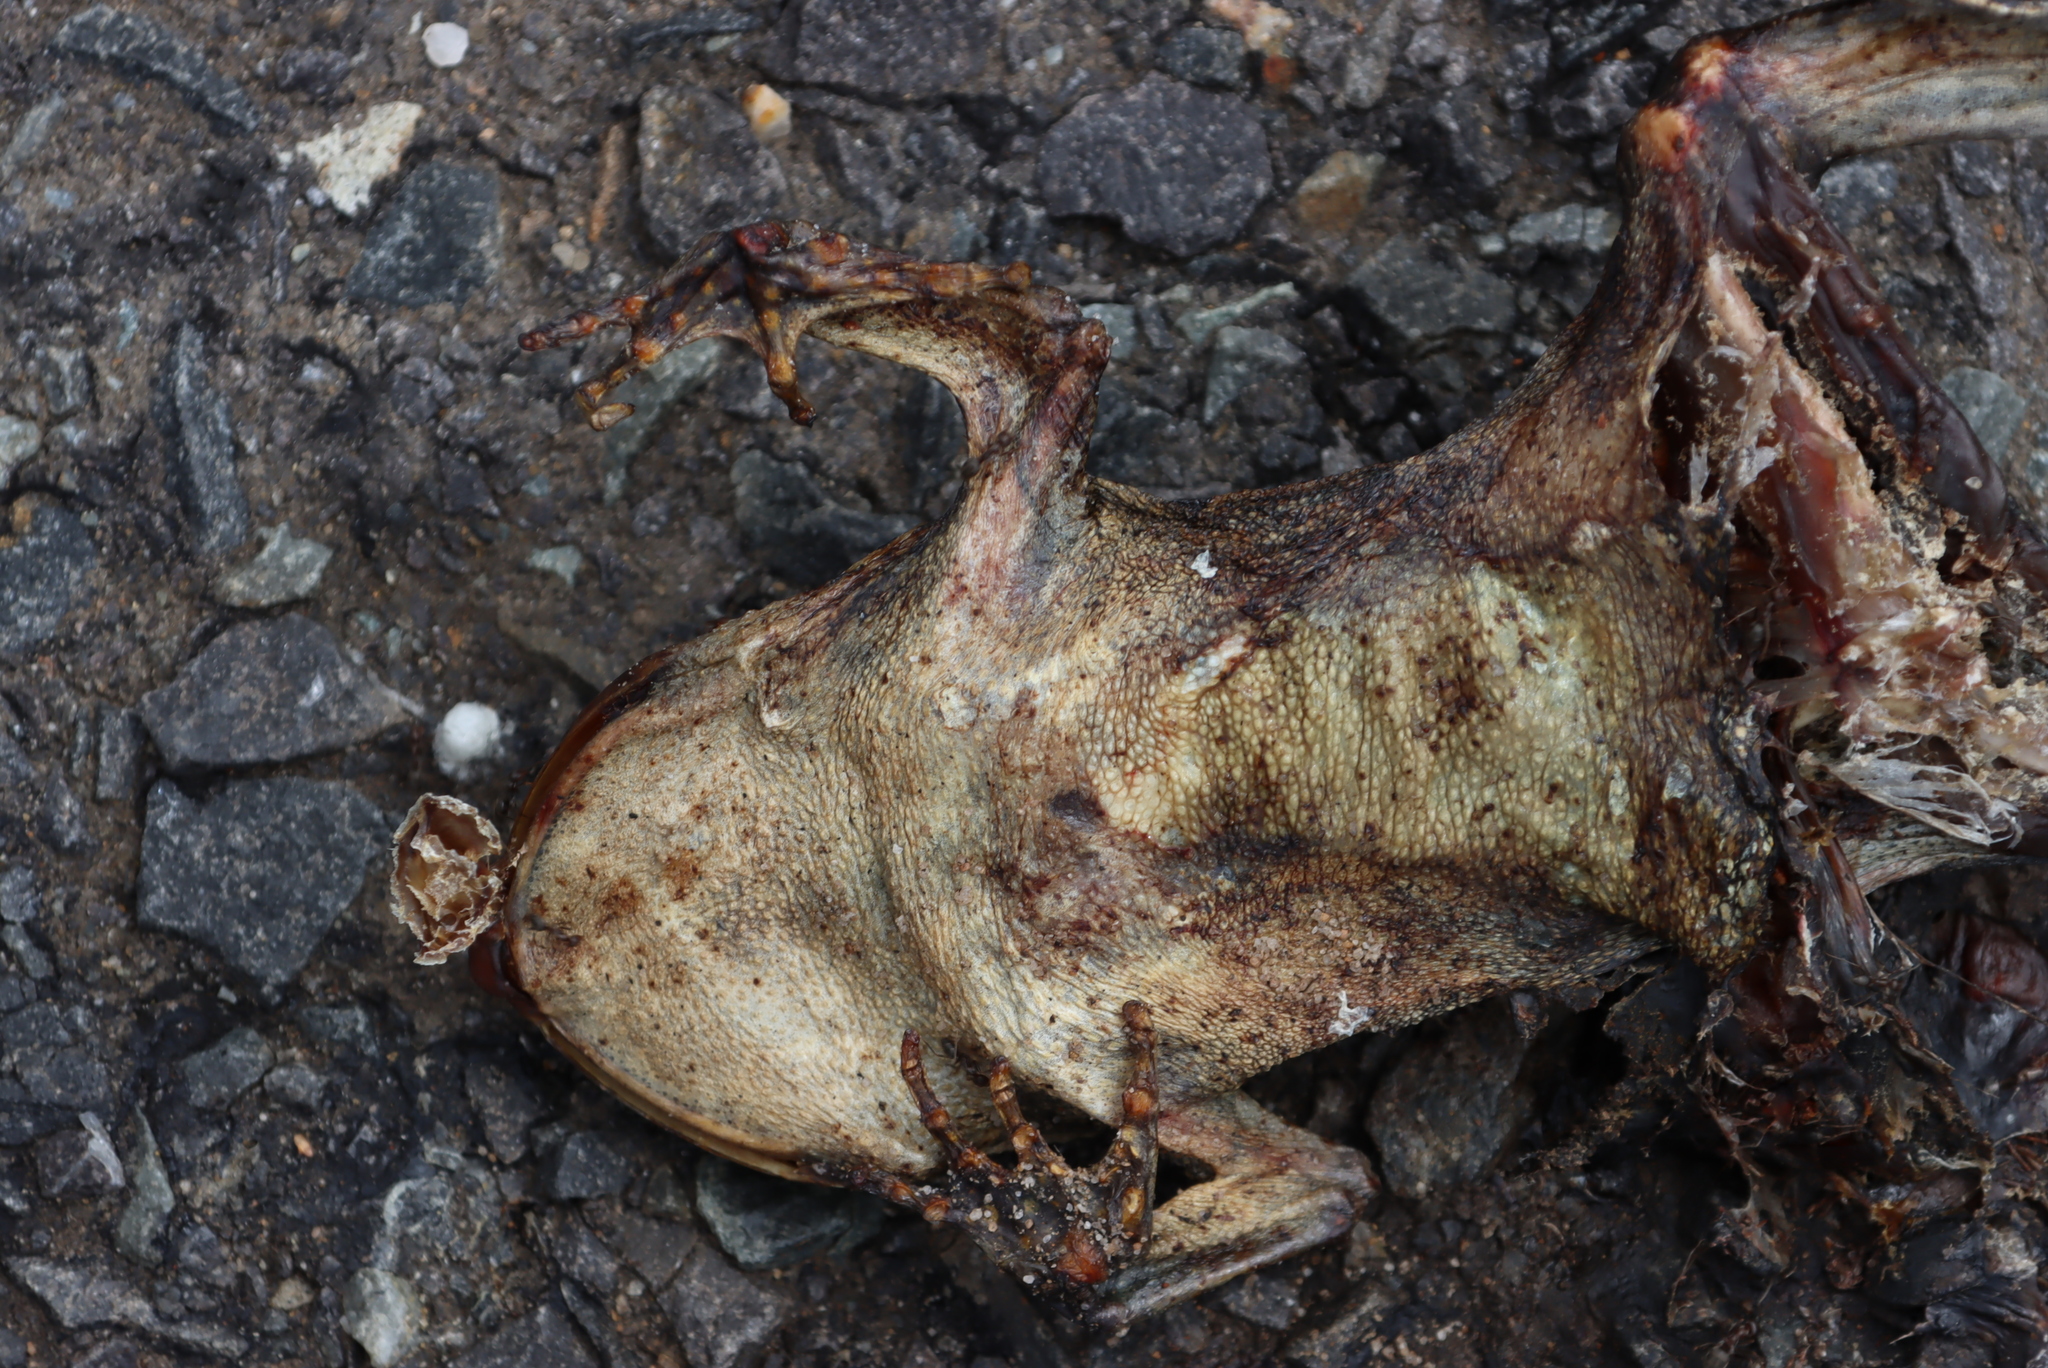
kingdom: Animalia
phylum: Chordata
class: Amphibia
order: Anura
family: Bufonidae
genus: Sclerophrys
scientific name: Sclerophrys pantherina
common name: Panther toad
